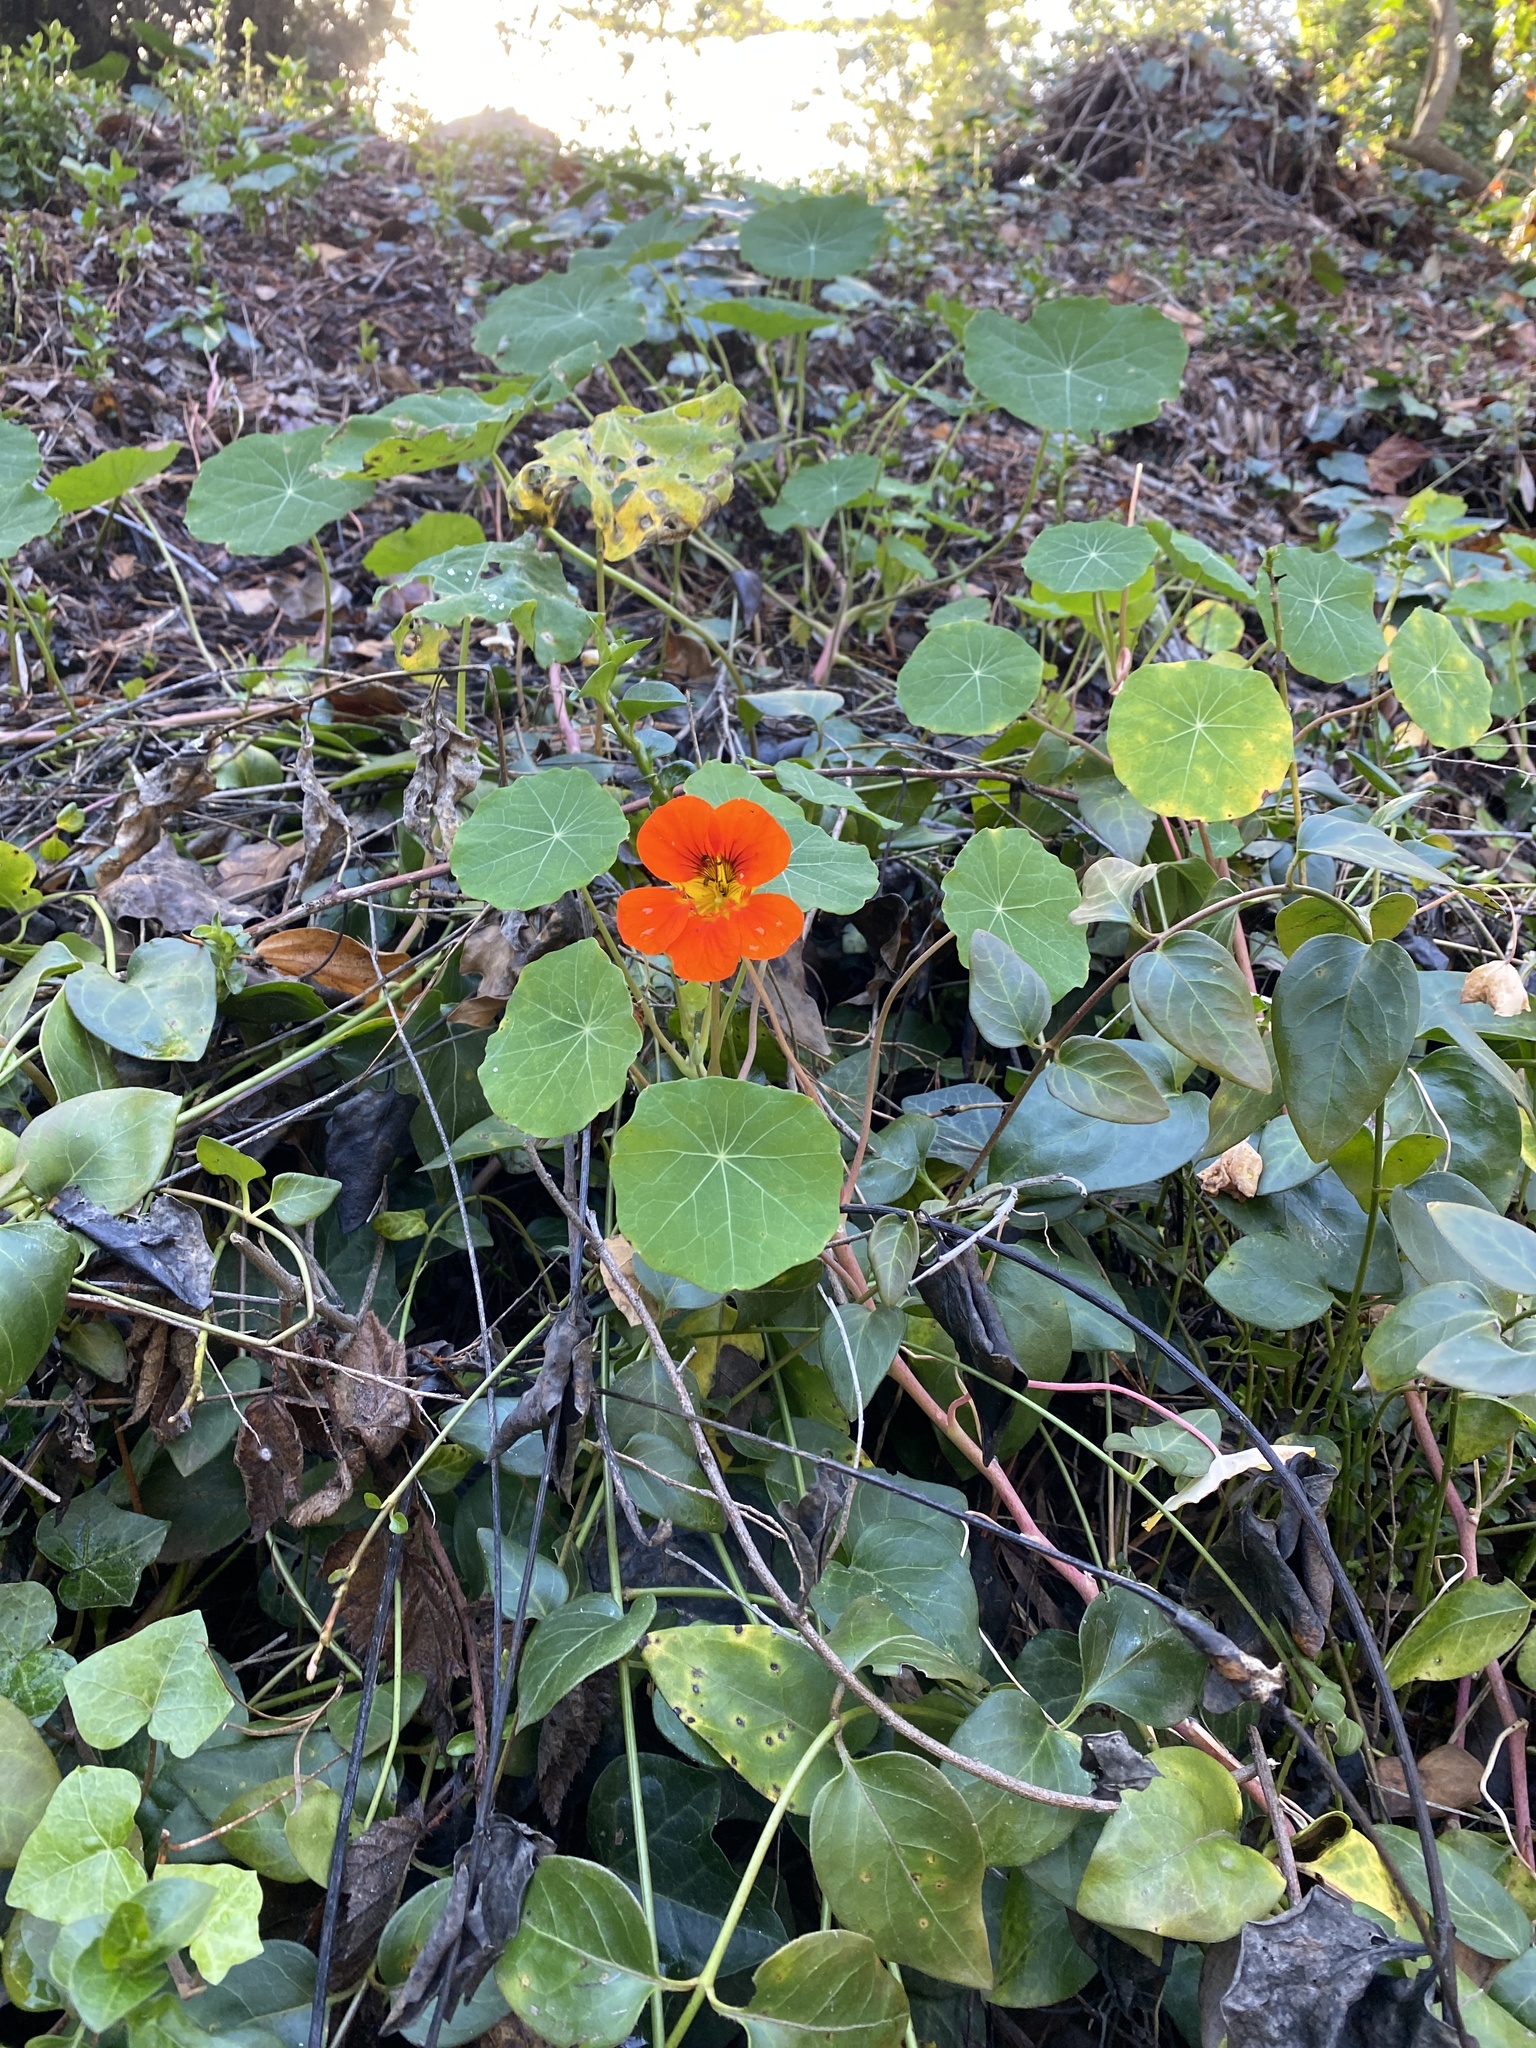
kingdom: Plantae
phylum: Tracheophyta
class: Magnoliopsida
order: Brassicales
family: Tropaeolaceae
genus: Tropaeolum
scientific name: Tropaeolum majus
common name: Nasturtium
